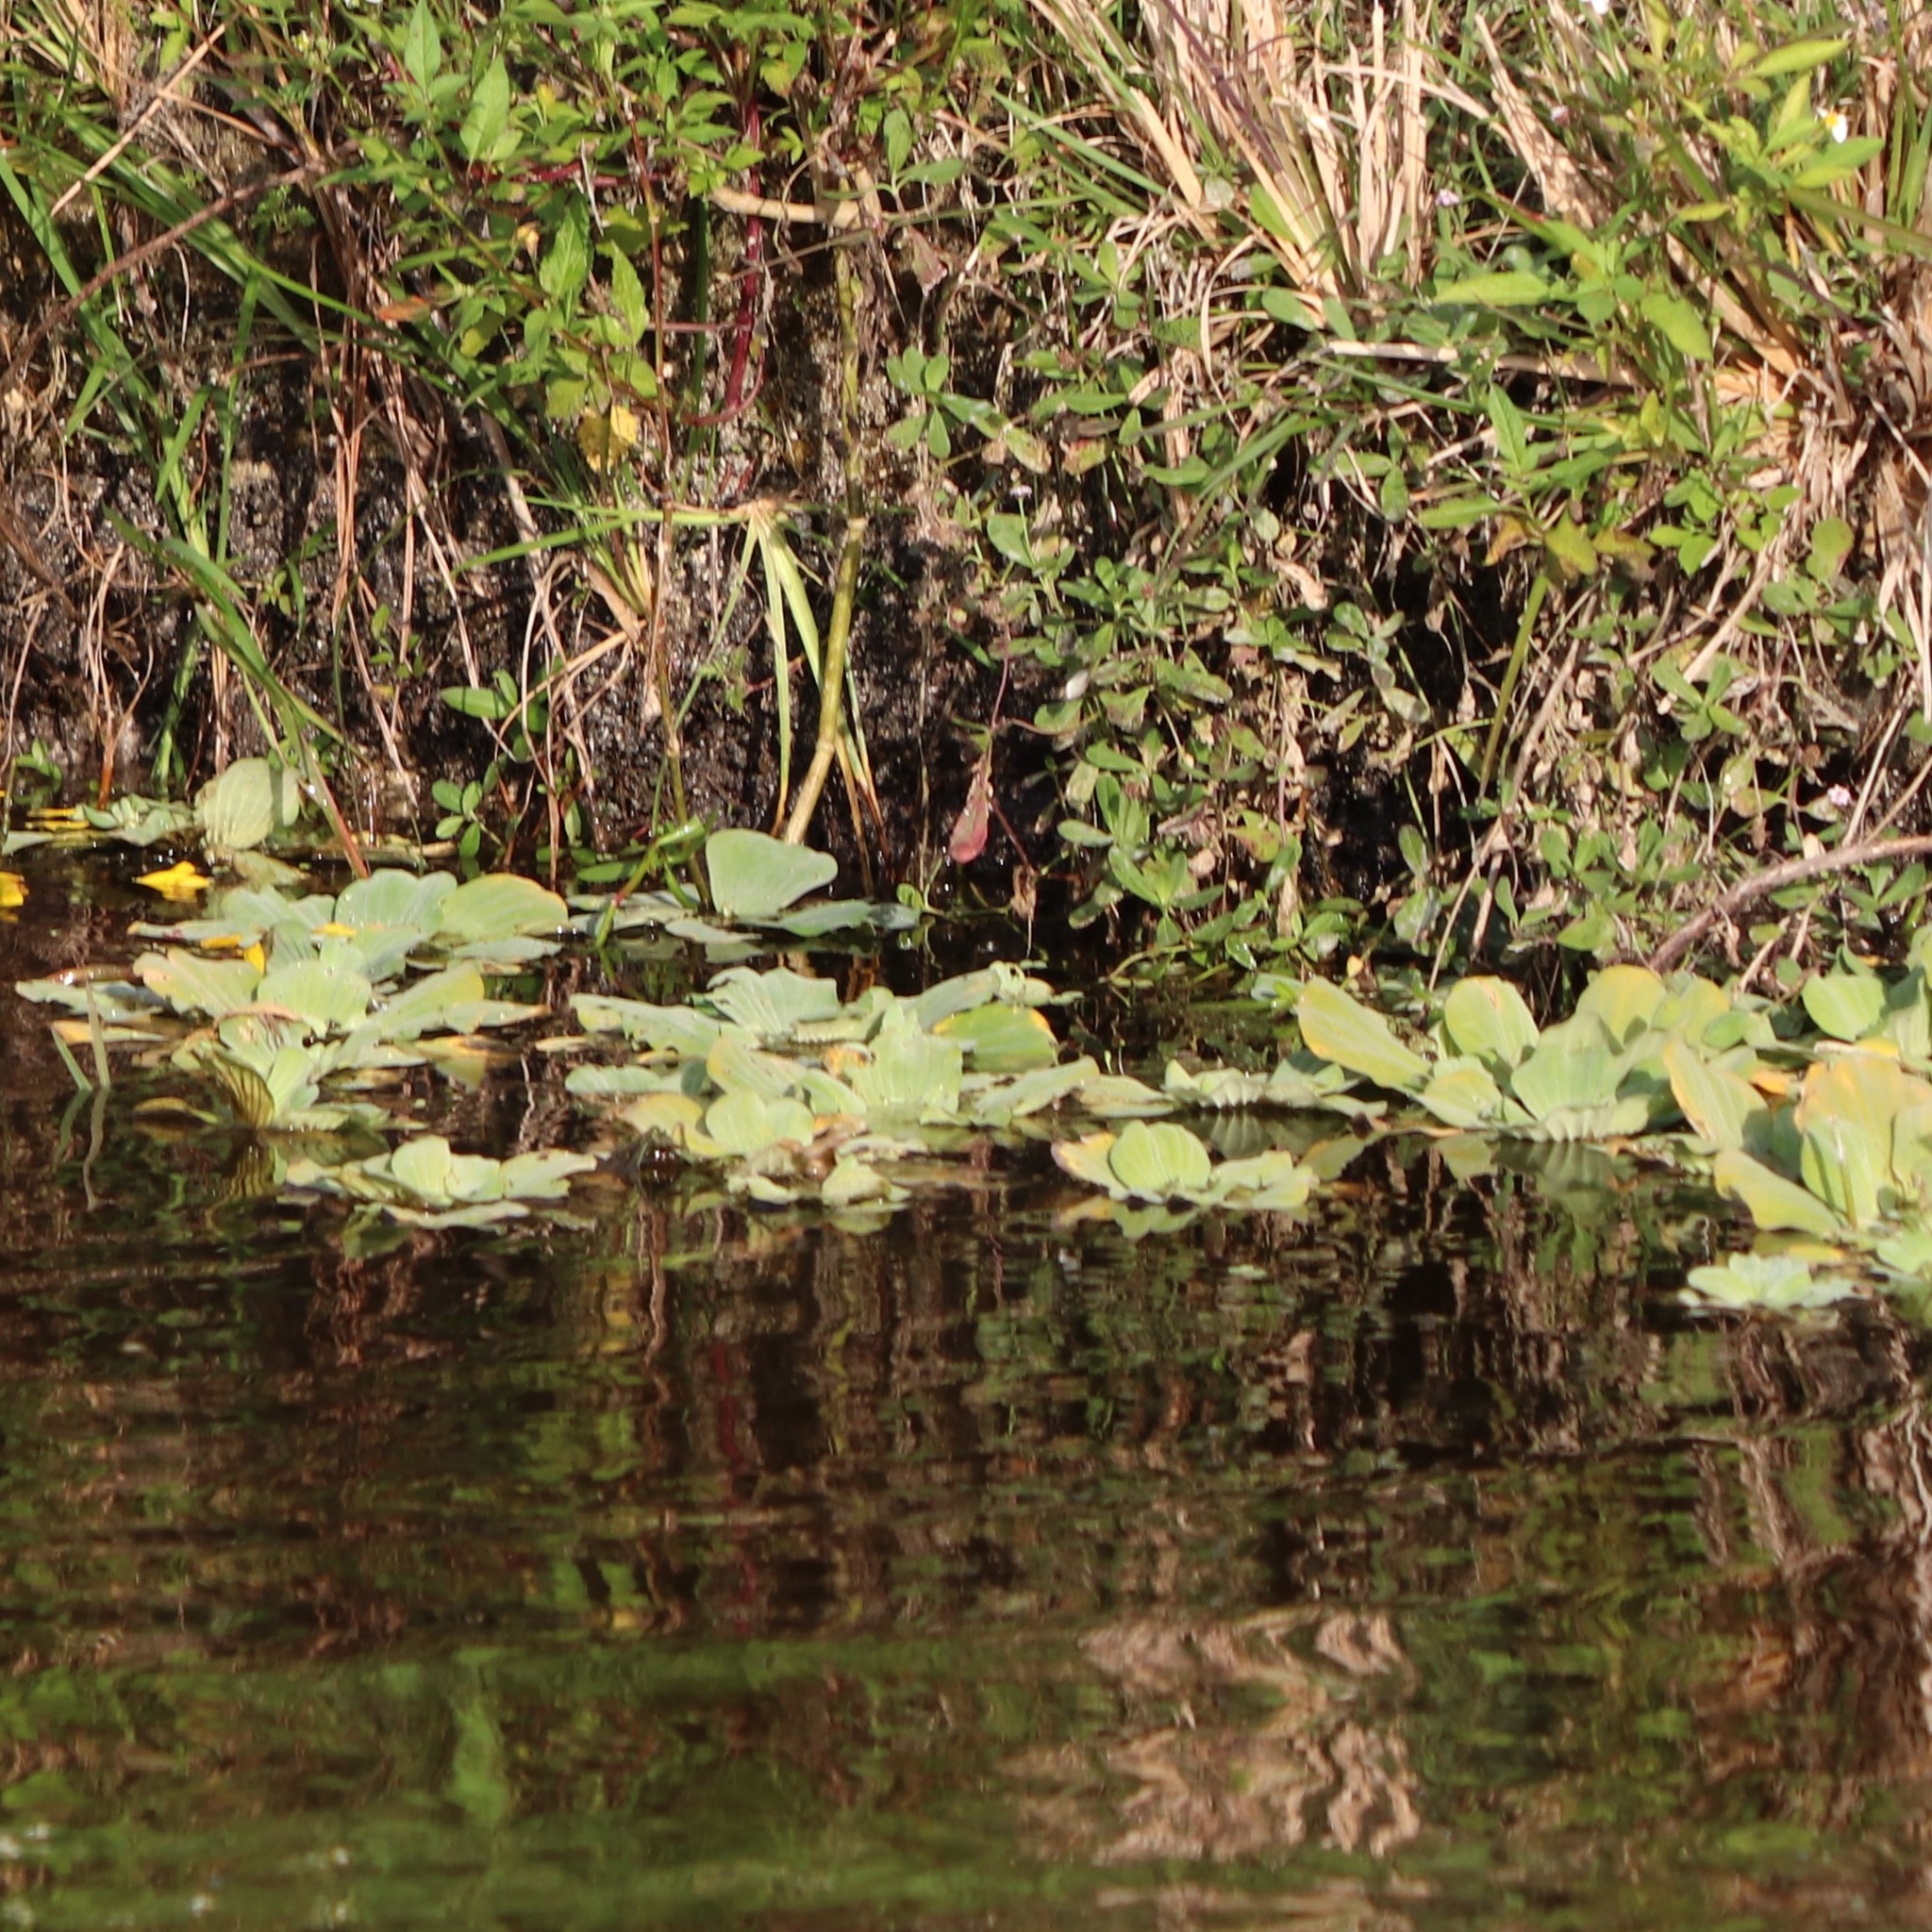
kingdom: Plantae
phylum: Tracheophyta
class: Liliopsida
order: Alismatales
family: Araceae
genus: Pistia
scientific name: Pistia stratiotes
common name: Water lettuce
